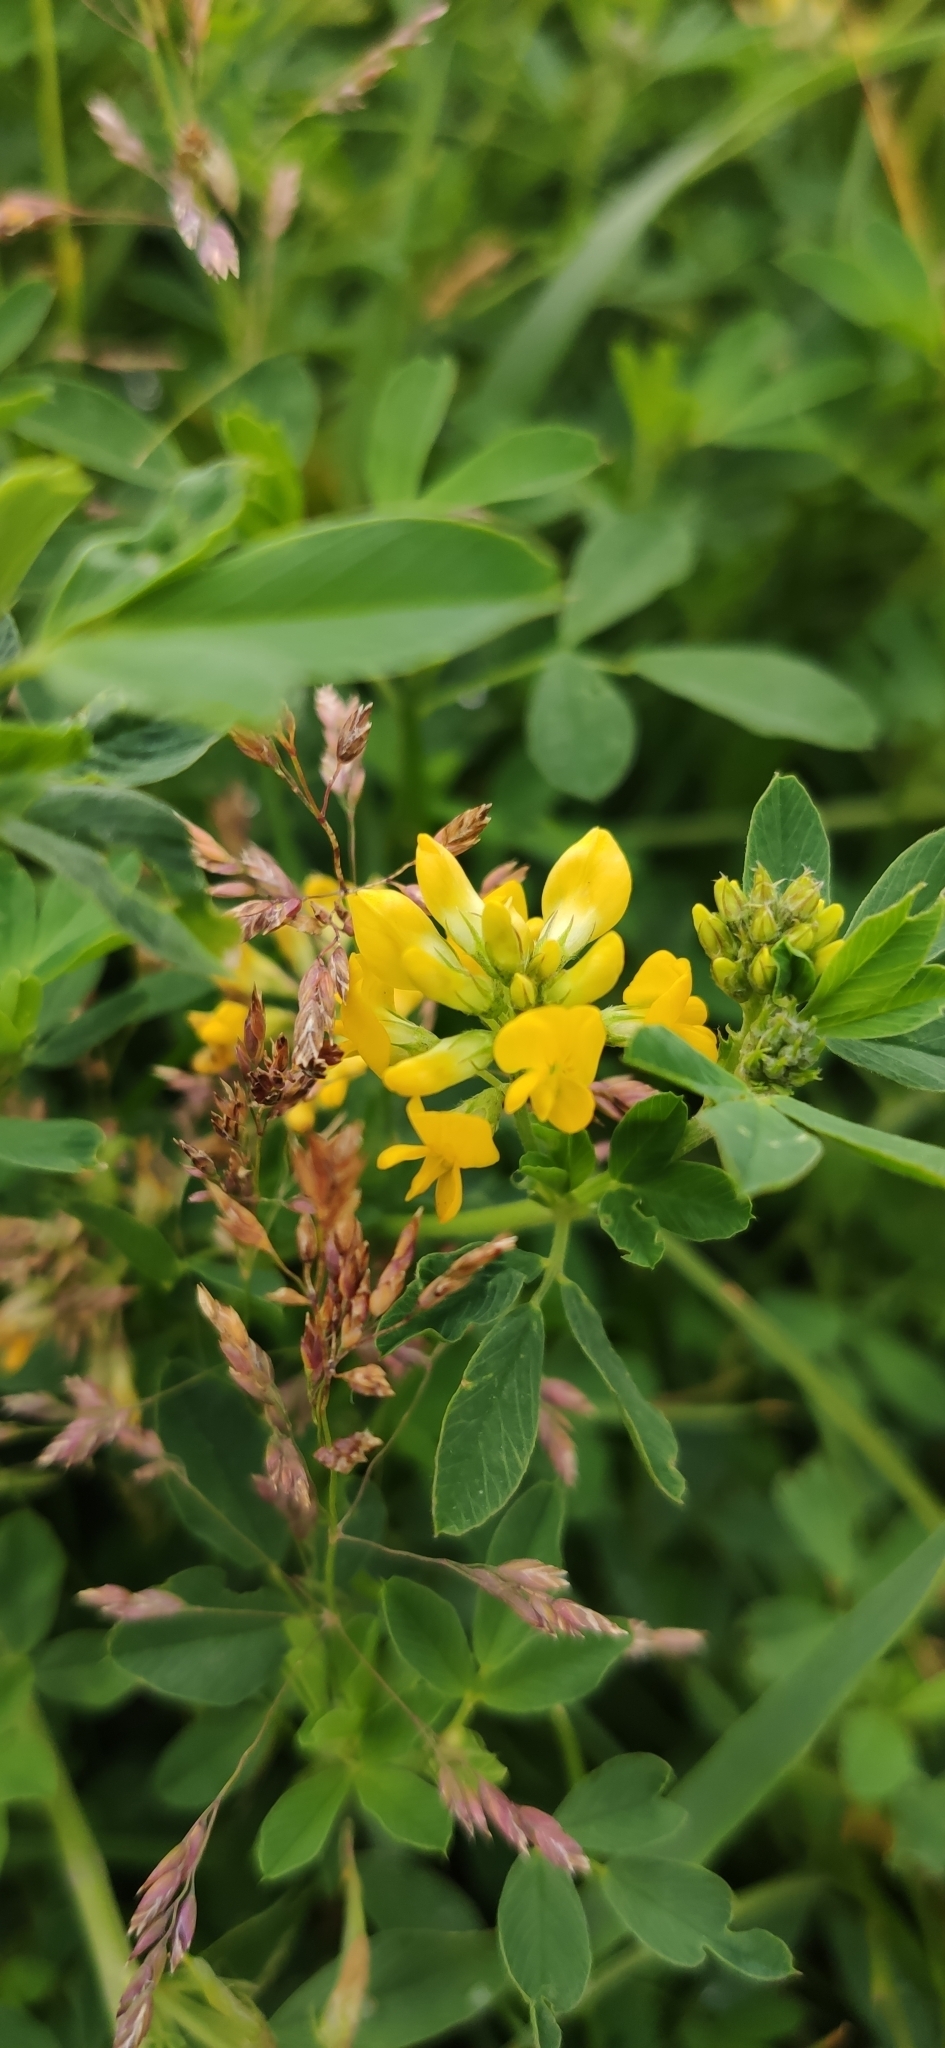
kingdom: Plantae
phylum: Tracheophyta
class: Magnoliopsida
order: Fabales
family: Fabaceae
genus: Medicago
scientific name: Medicago falcata
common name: Sickle medick
